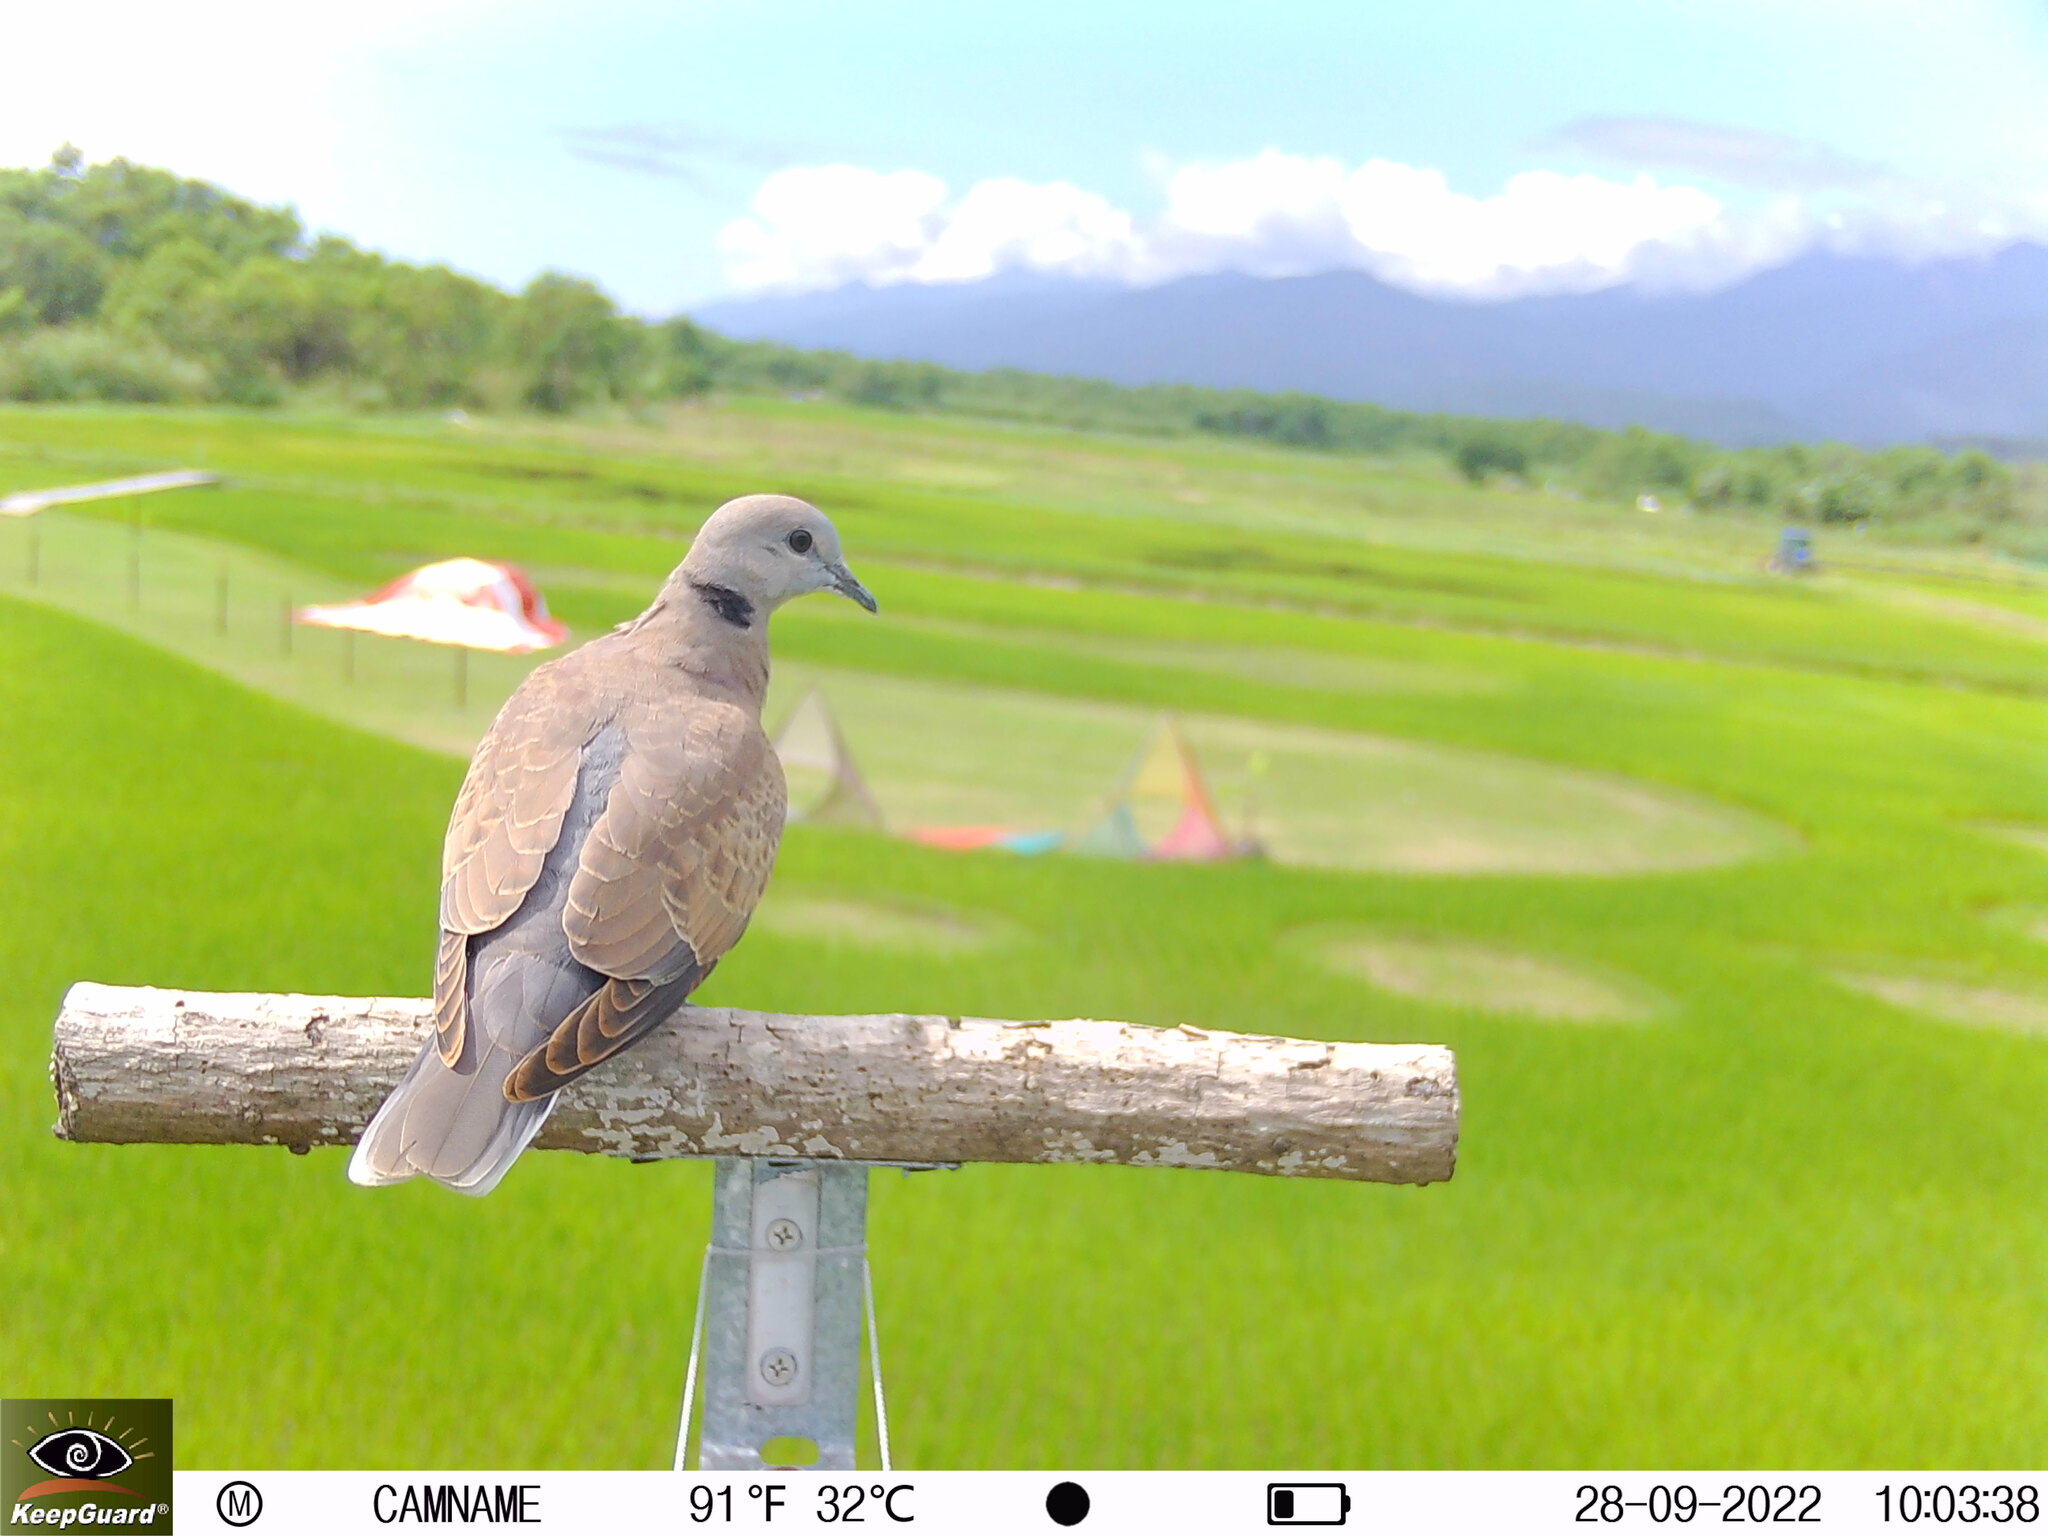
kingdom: Animalia
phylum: Chordata
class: Aves
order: Columbiformes
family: Columbidae
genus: Streptopelia
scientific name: Streptopelia tranquebarica
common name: Red turtle dove
